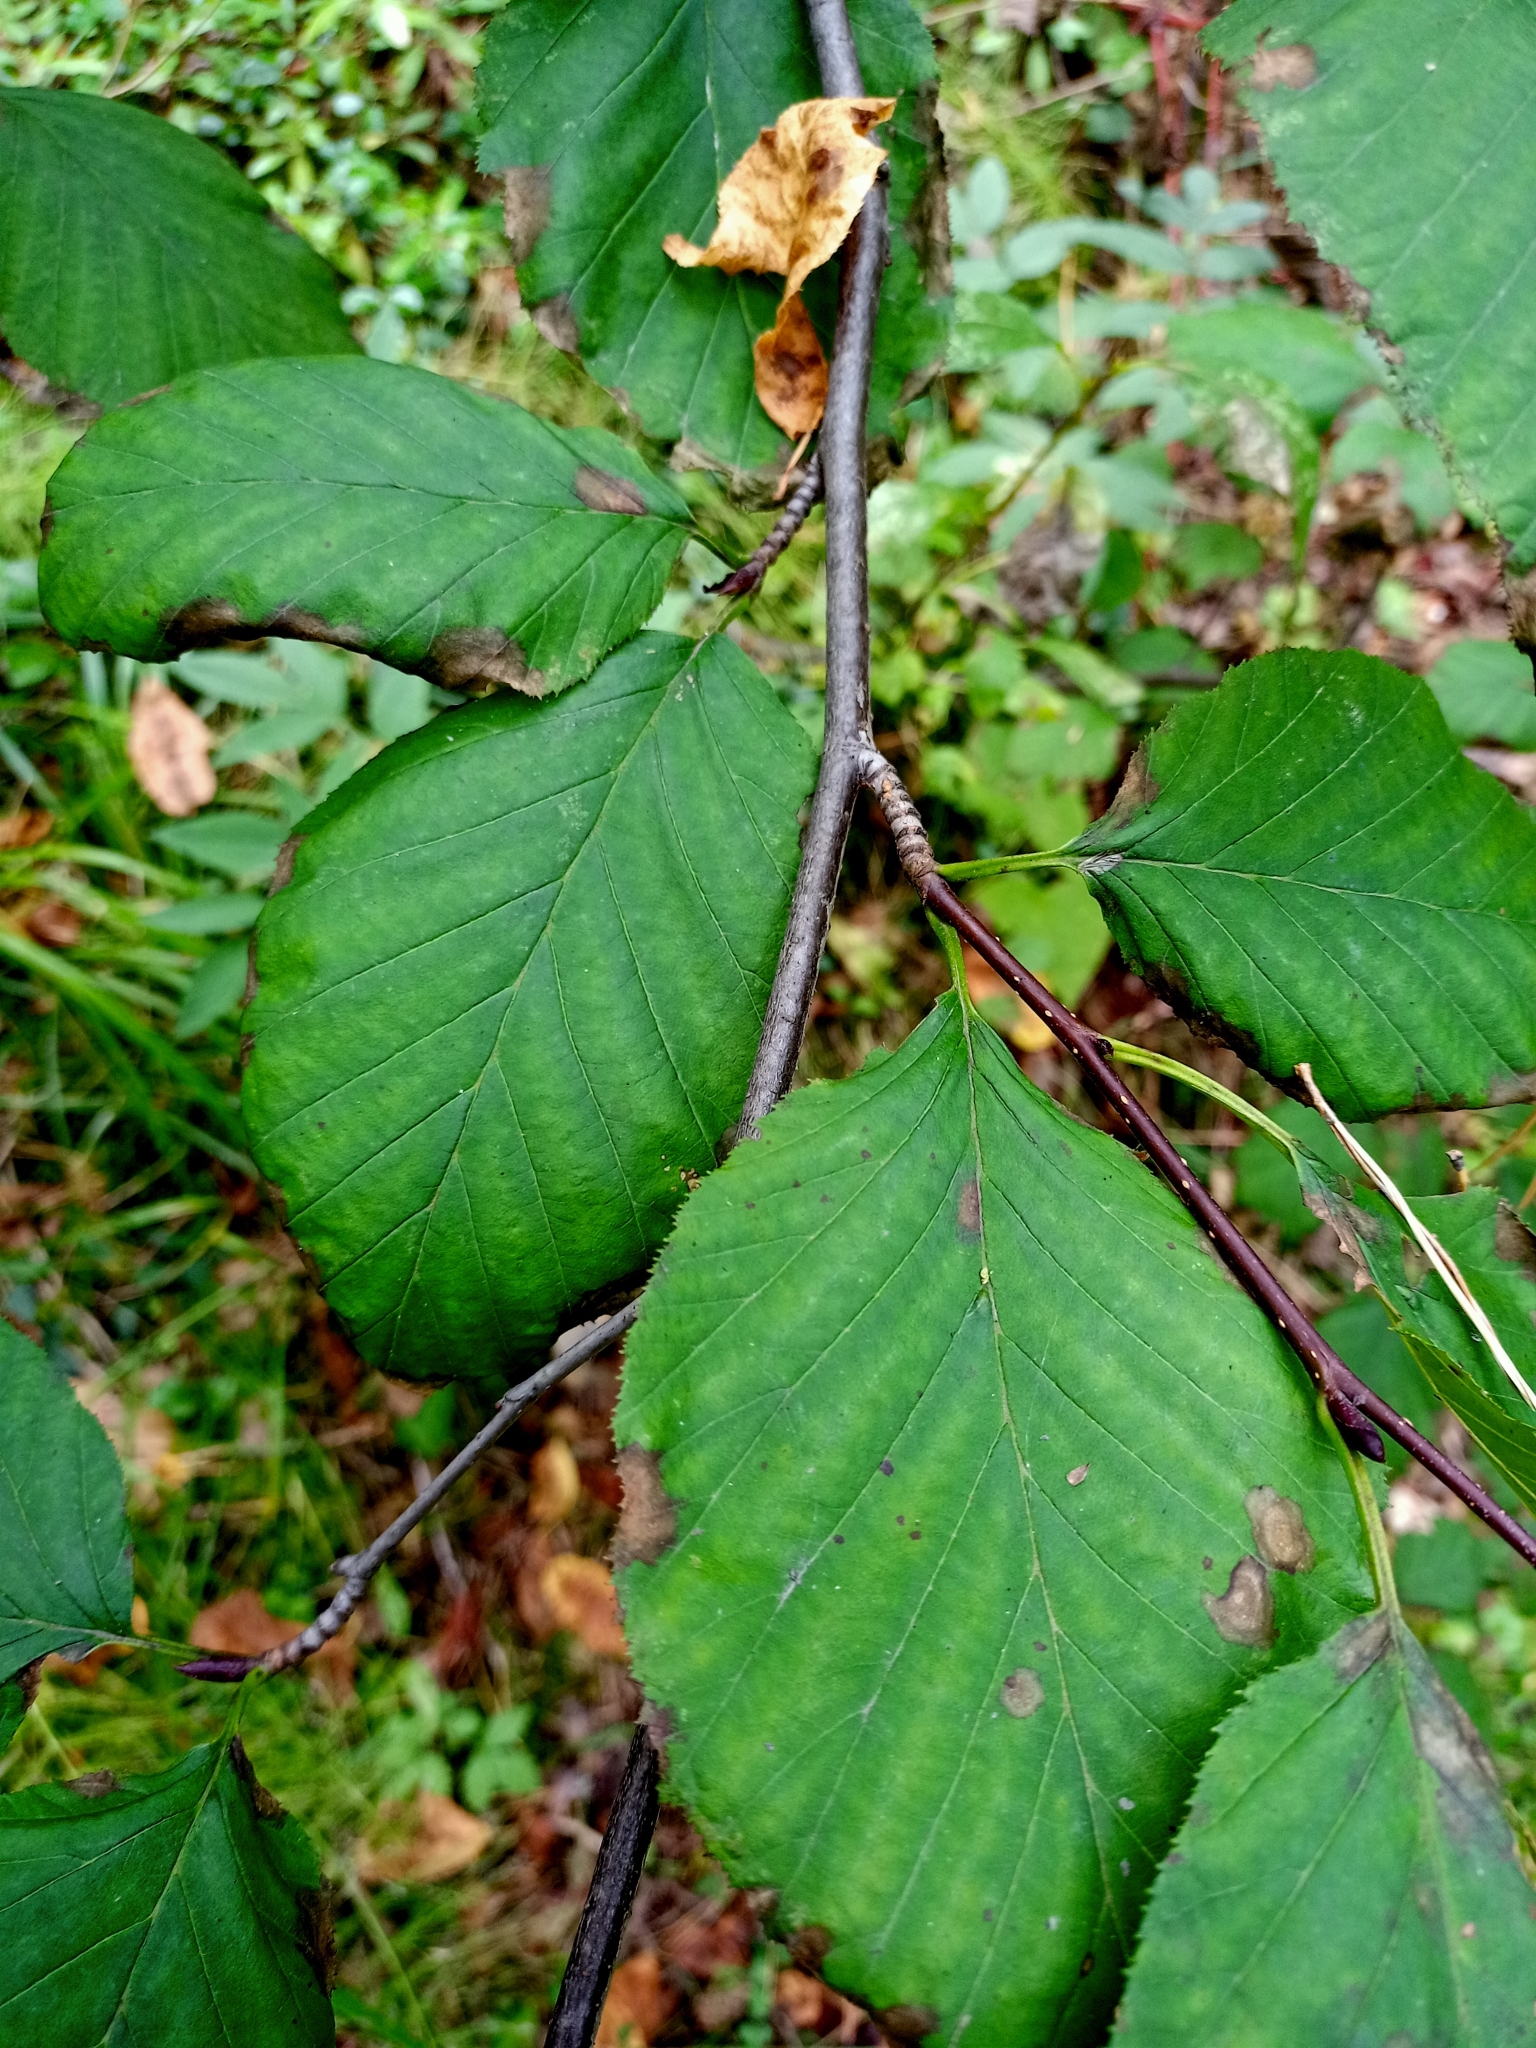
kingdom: Plantae
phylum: Tracheophyta
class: Magnoliopsida
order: Fagales
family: Betulaceae
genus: Alnus
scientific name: Alnus alnobetula
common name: Green alder
